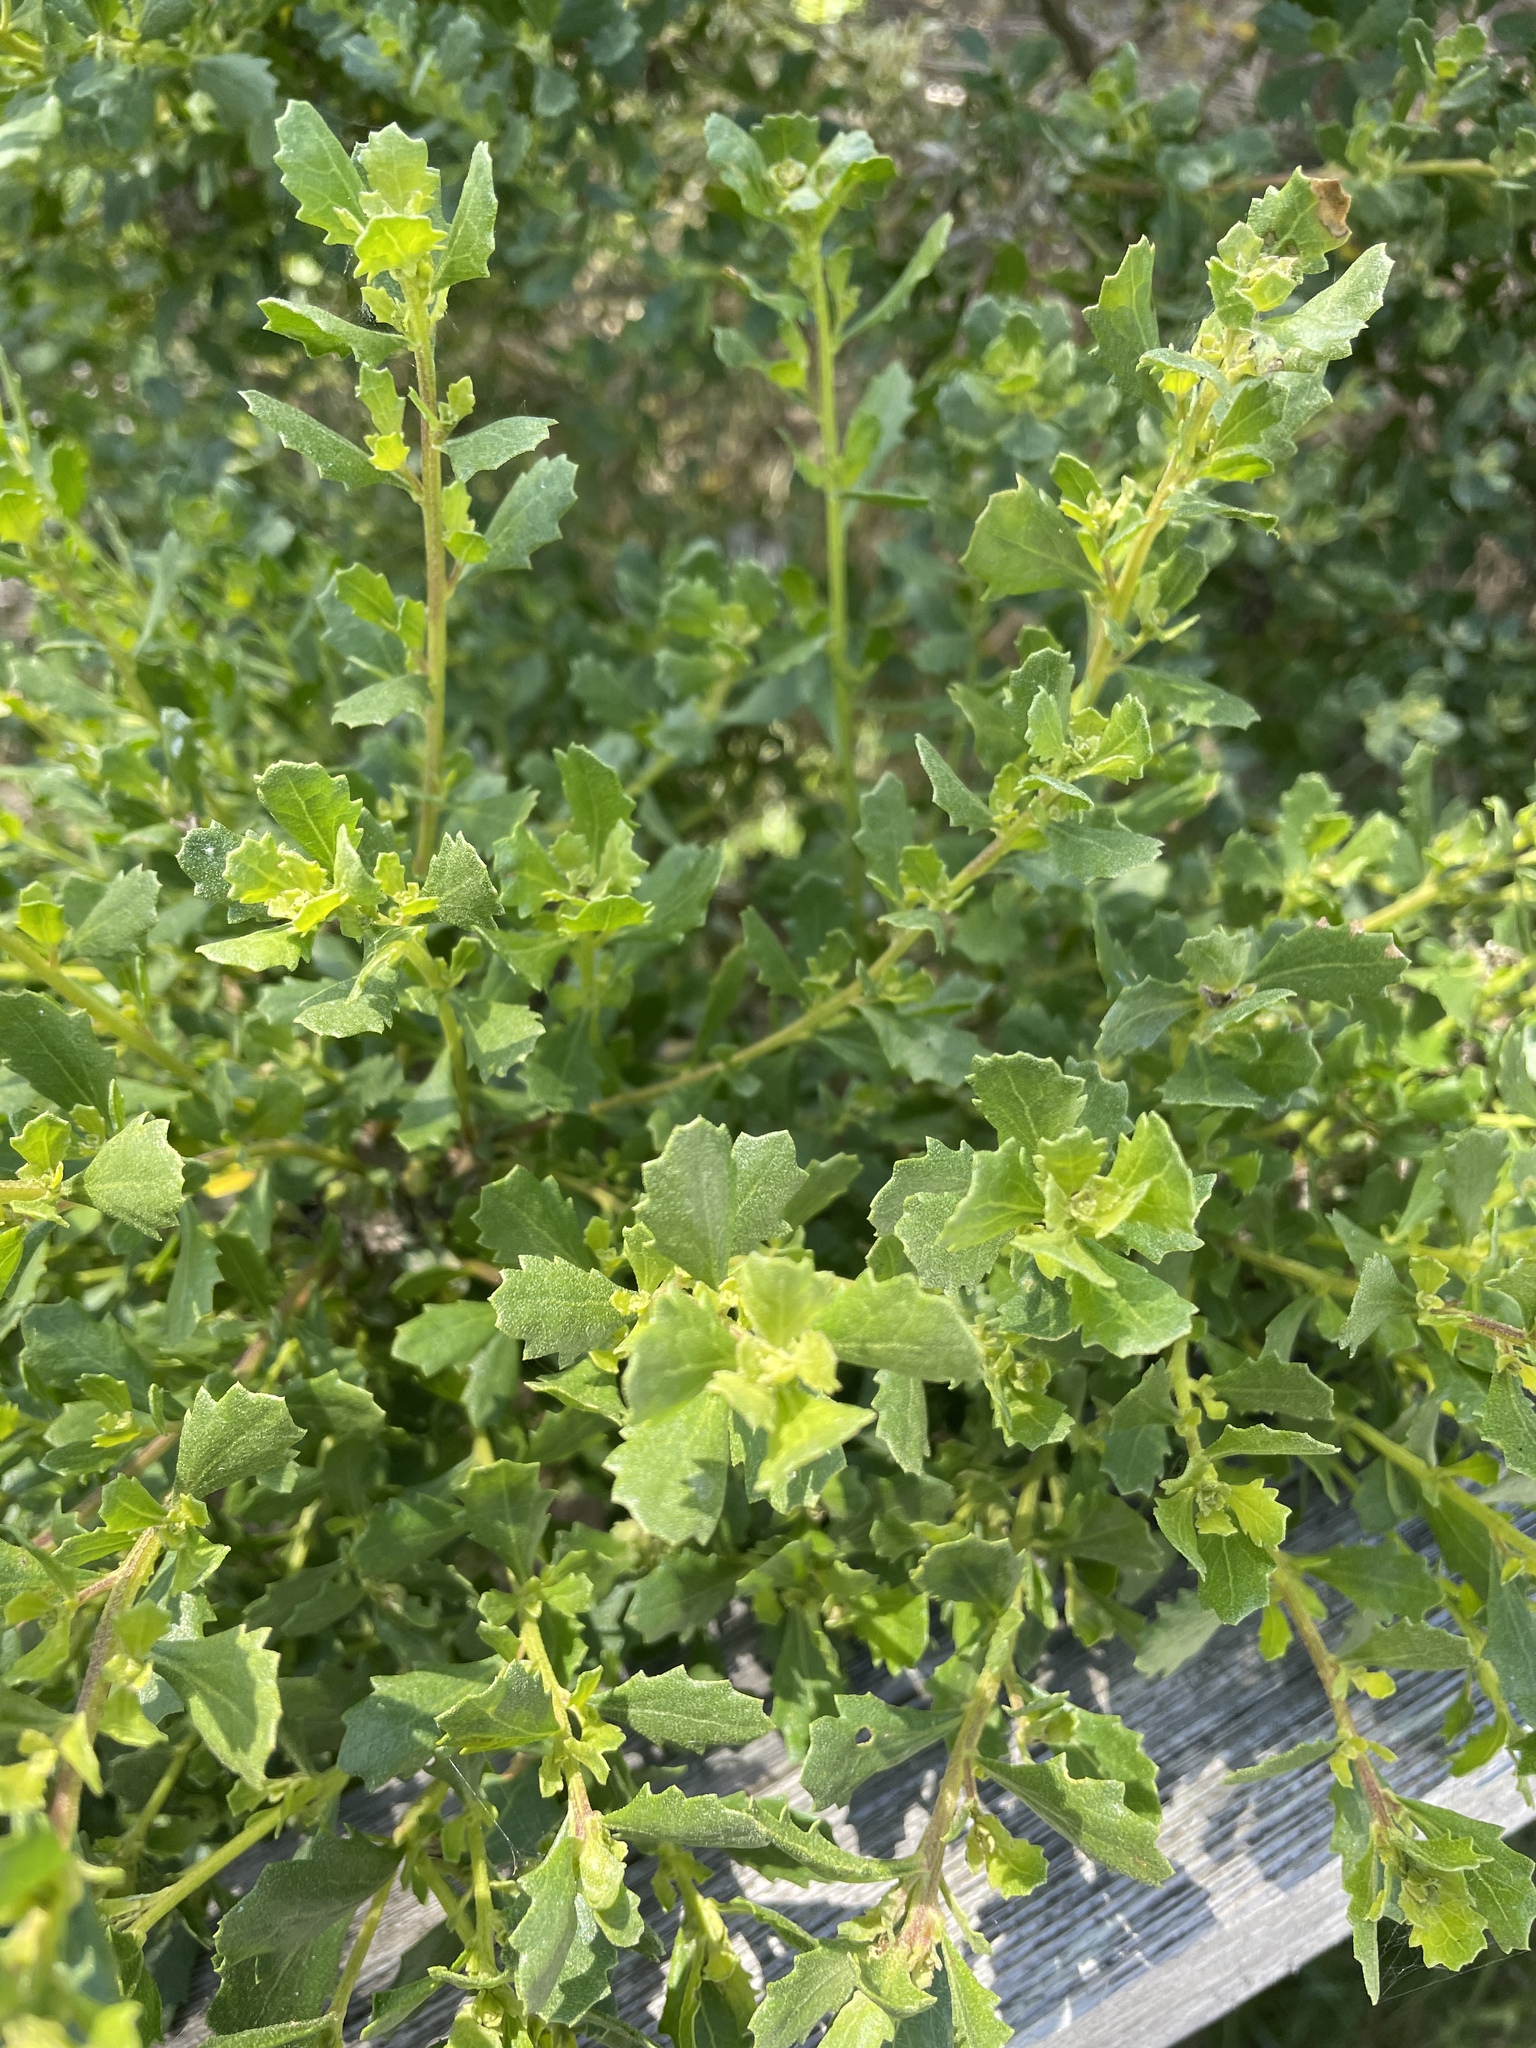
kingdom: Plantae
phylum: Tracheophyta
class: Magnoliopsida
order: Asterales
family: Asteraceae
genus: Baccharis
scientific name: Baccharis pilularis
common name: Coyotebrush
